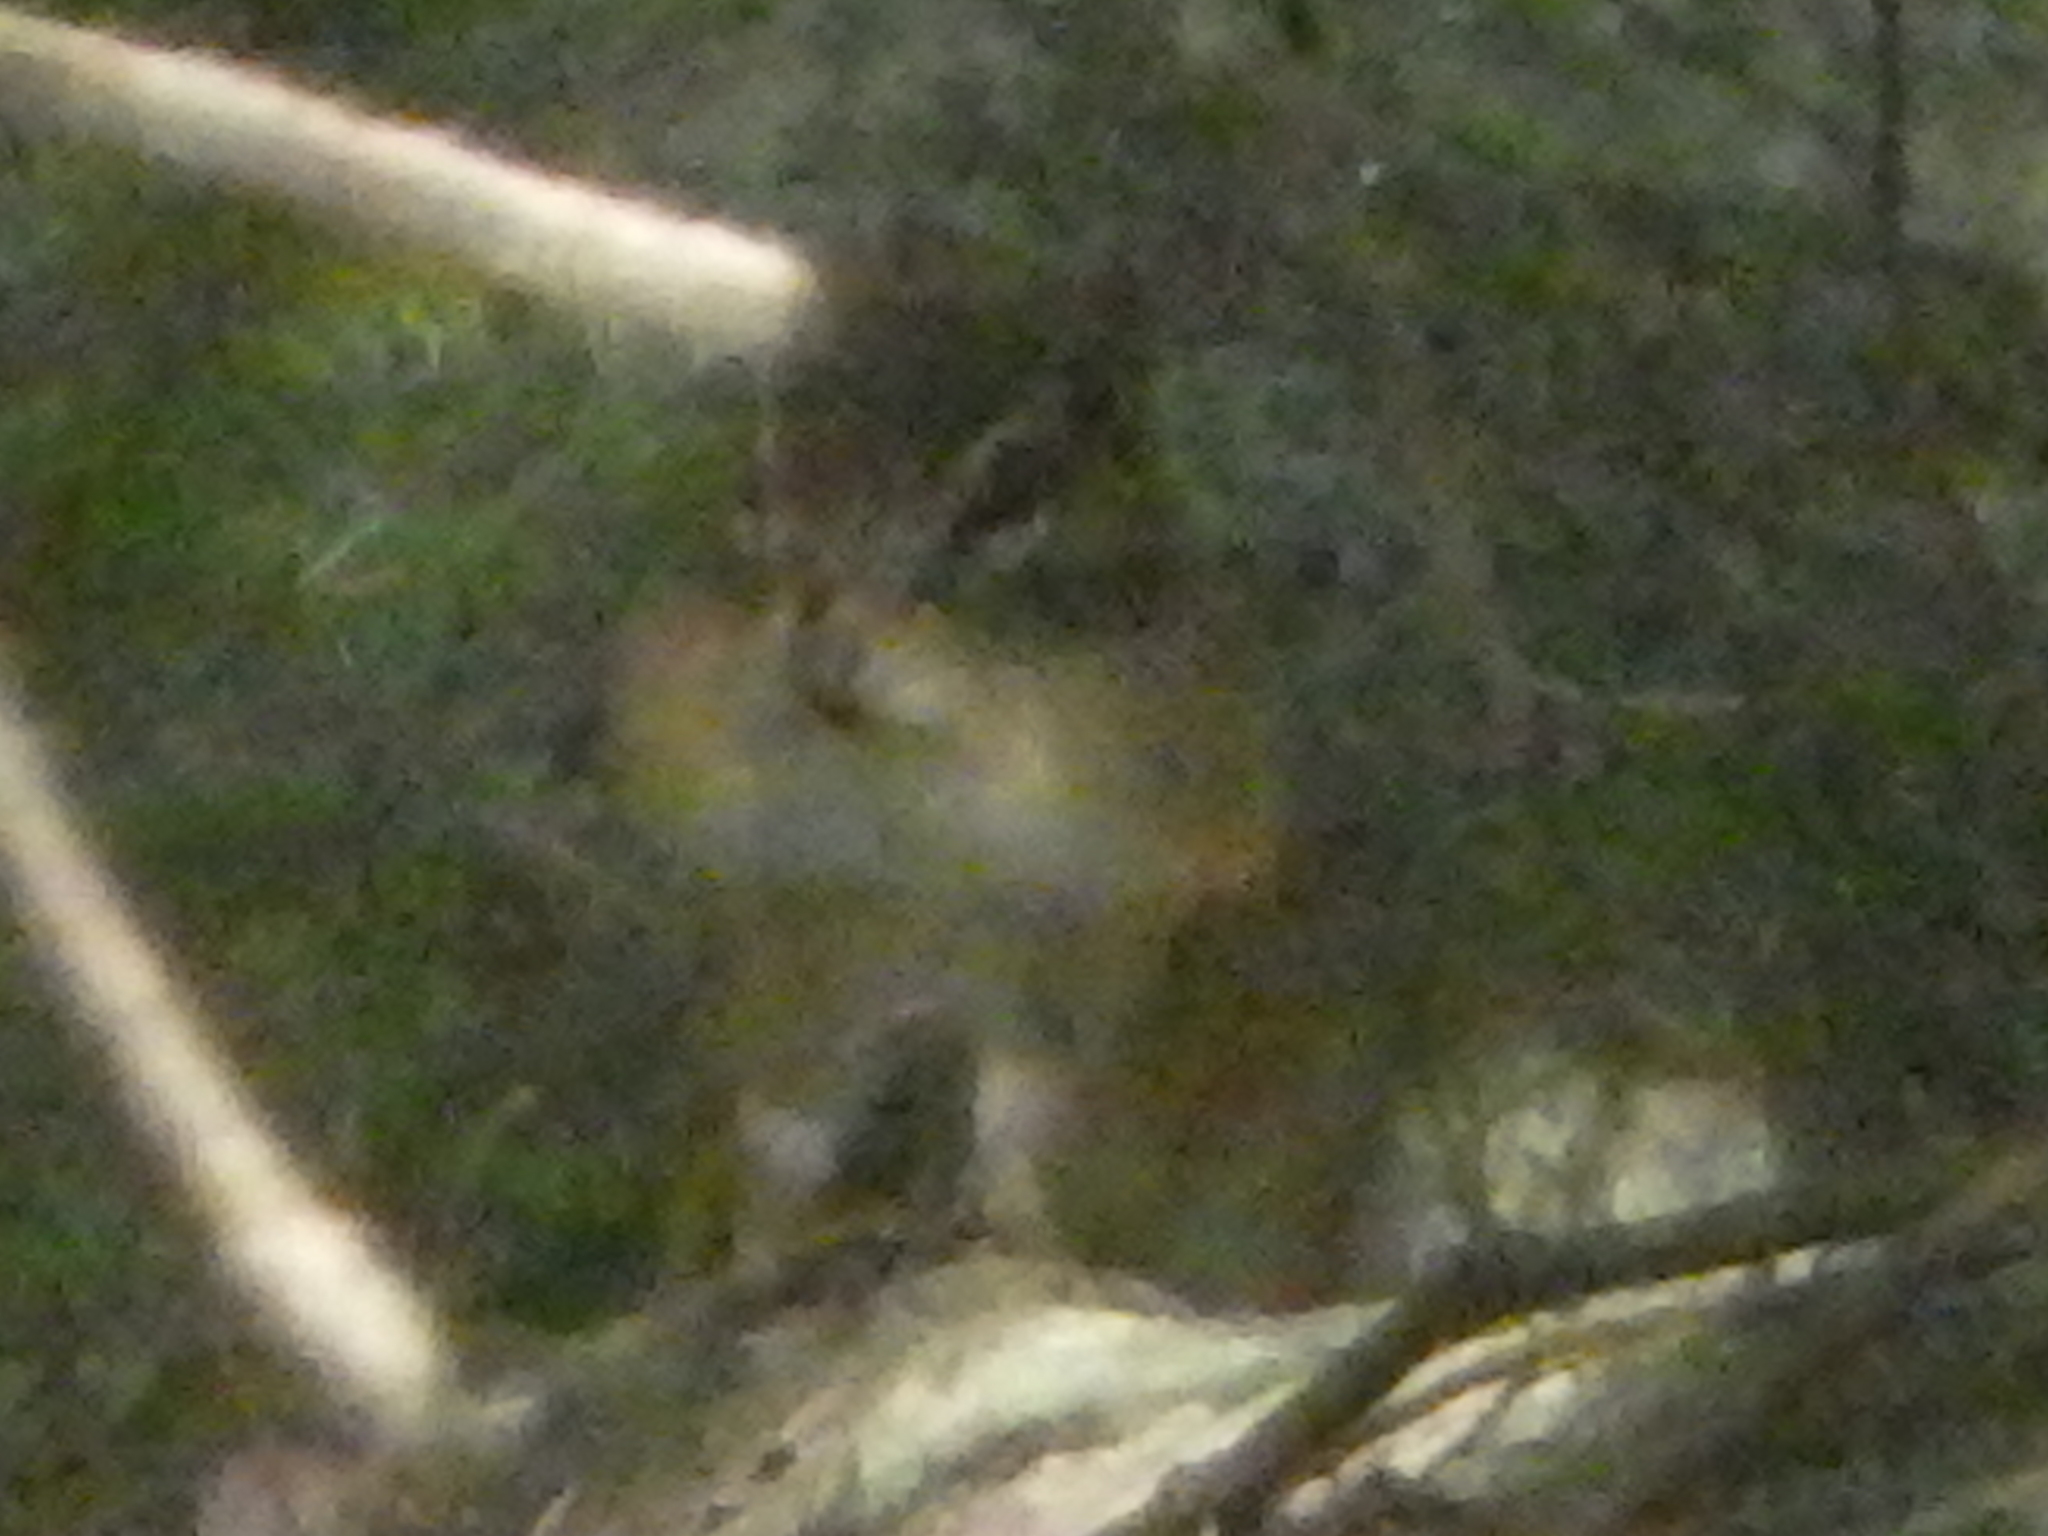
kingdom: Animalia
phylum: Chordata
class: Mammalia
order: Rodentia
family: Sciuridae
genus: Tamias
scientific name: Tamias striatus
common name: Eastern chipmunk
